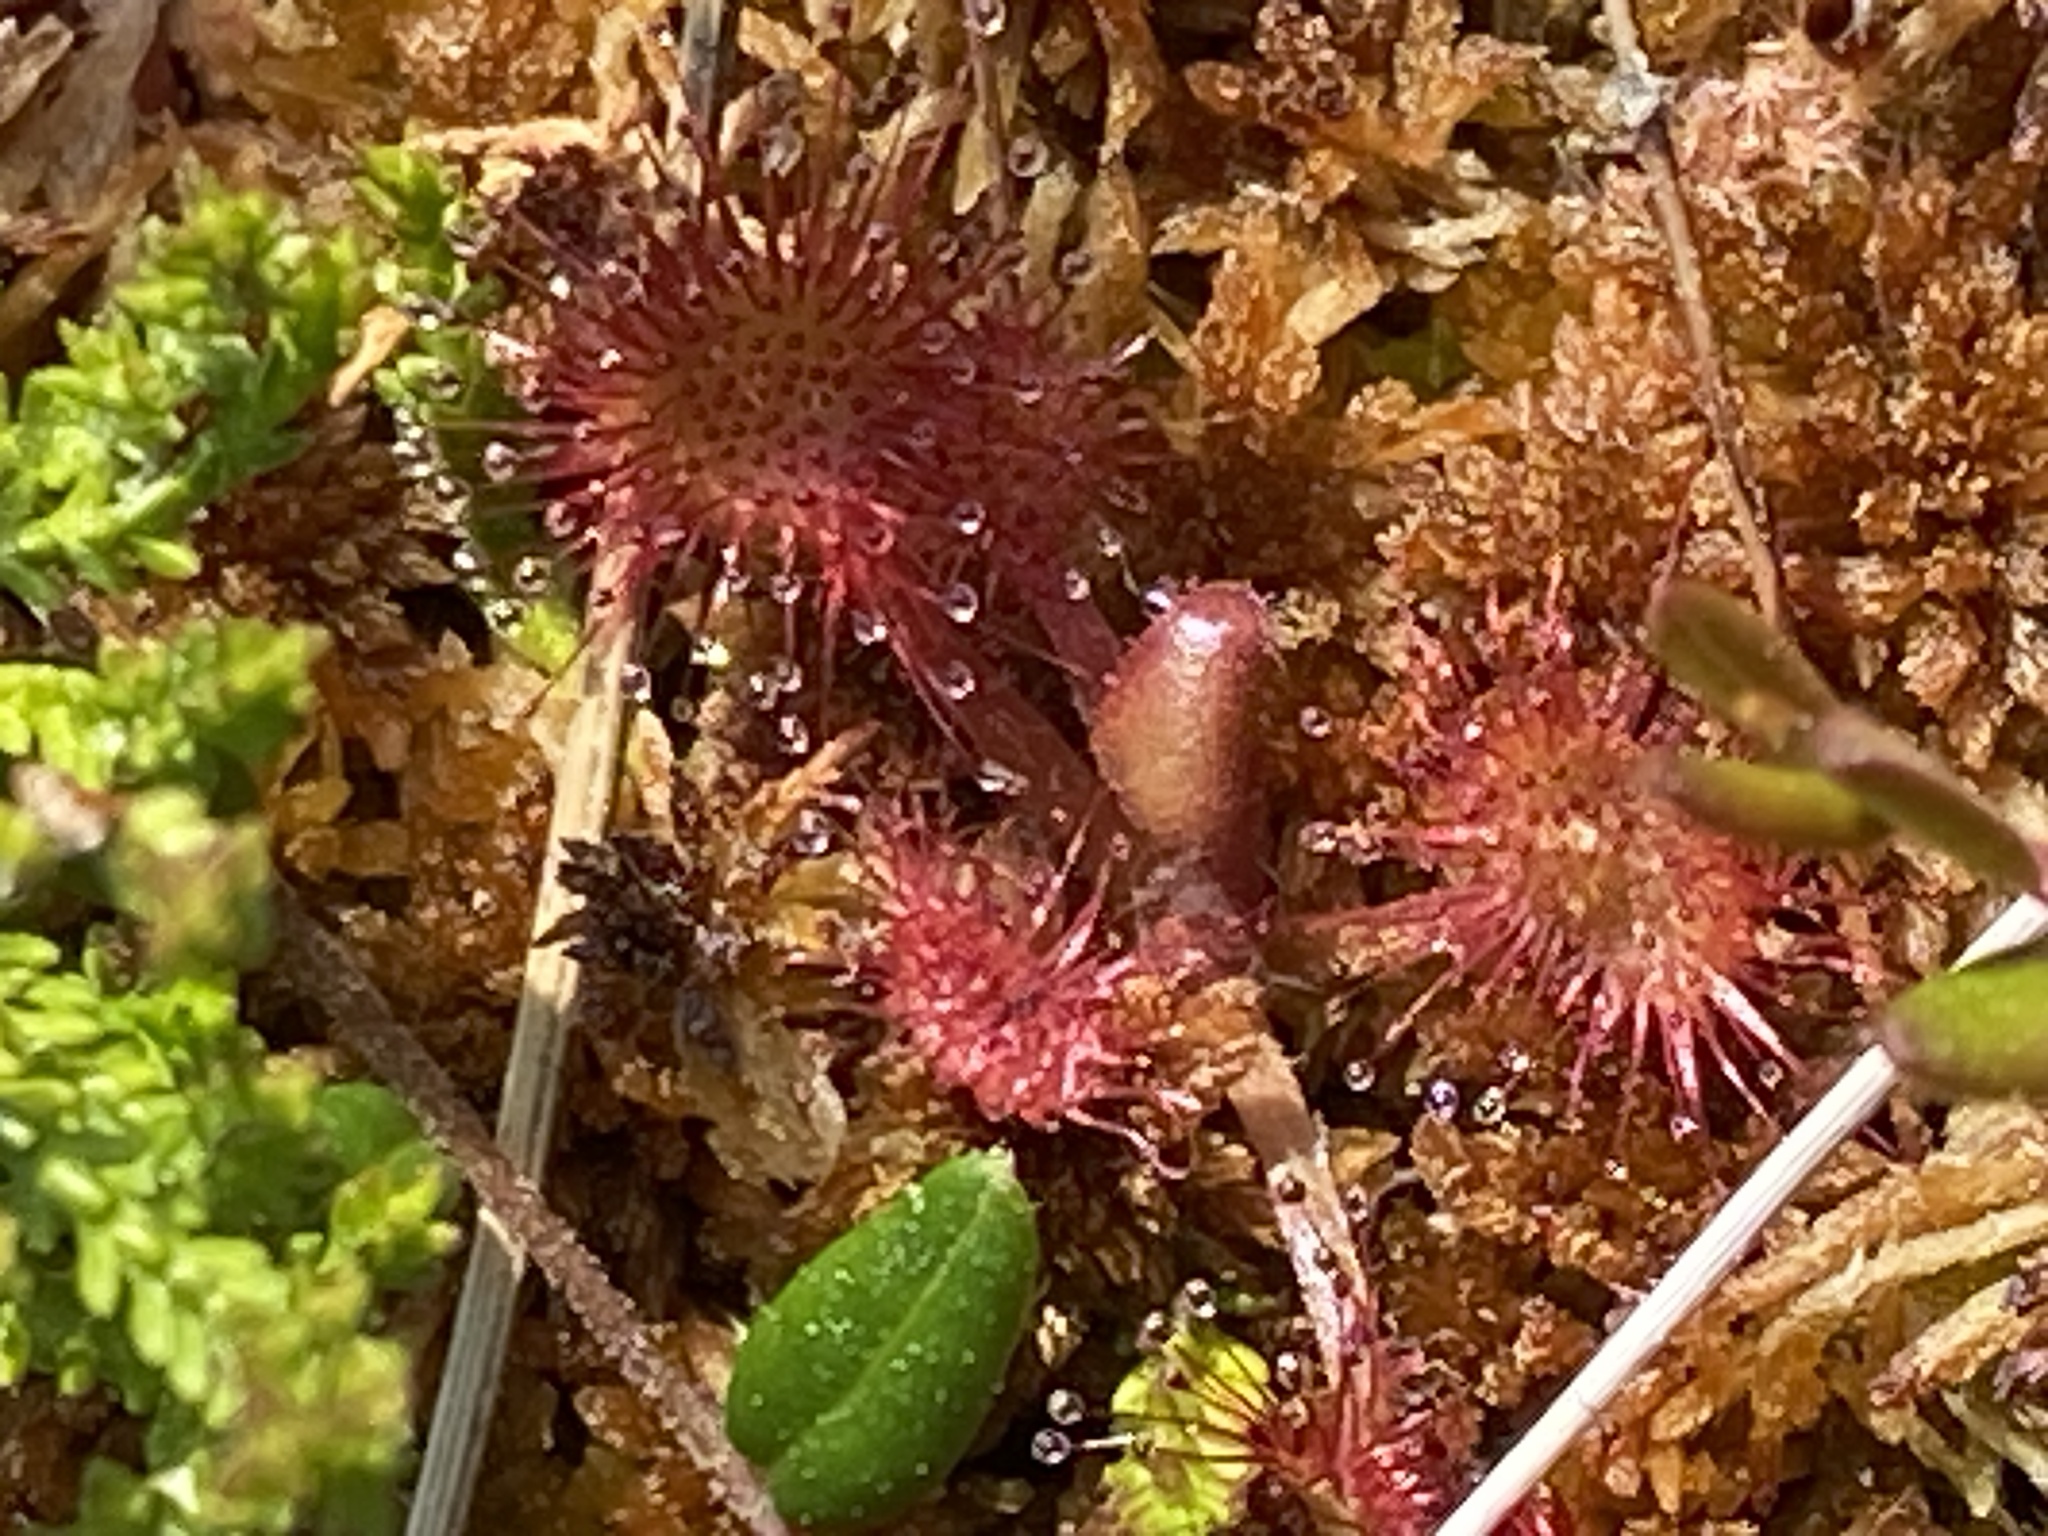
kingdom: Plantae
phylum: Tracheophyta
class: Magnoliopsida
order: Caryophyllales
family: Droseraceae
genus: Drosera
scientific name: Drosera rotundifolia
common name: Round-leaved sundew
